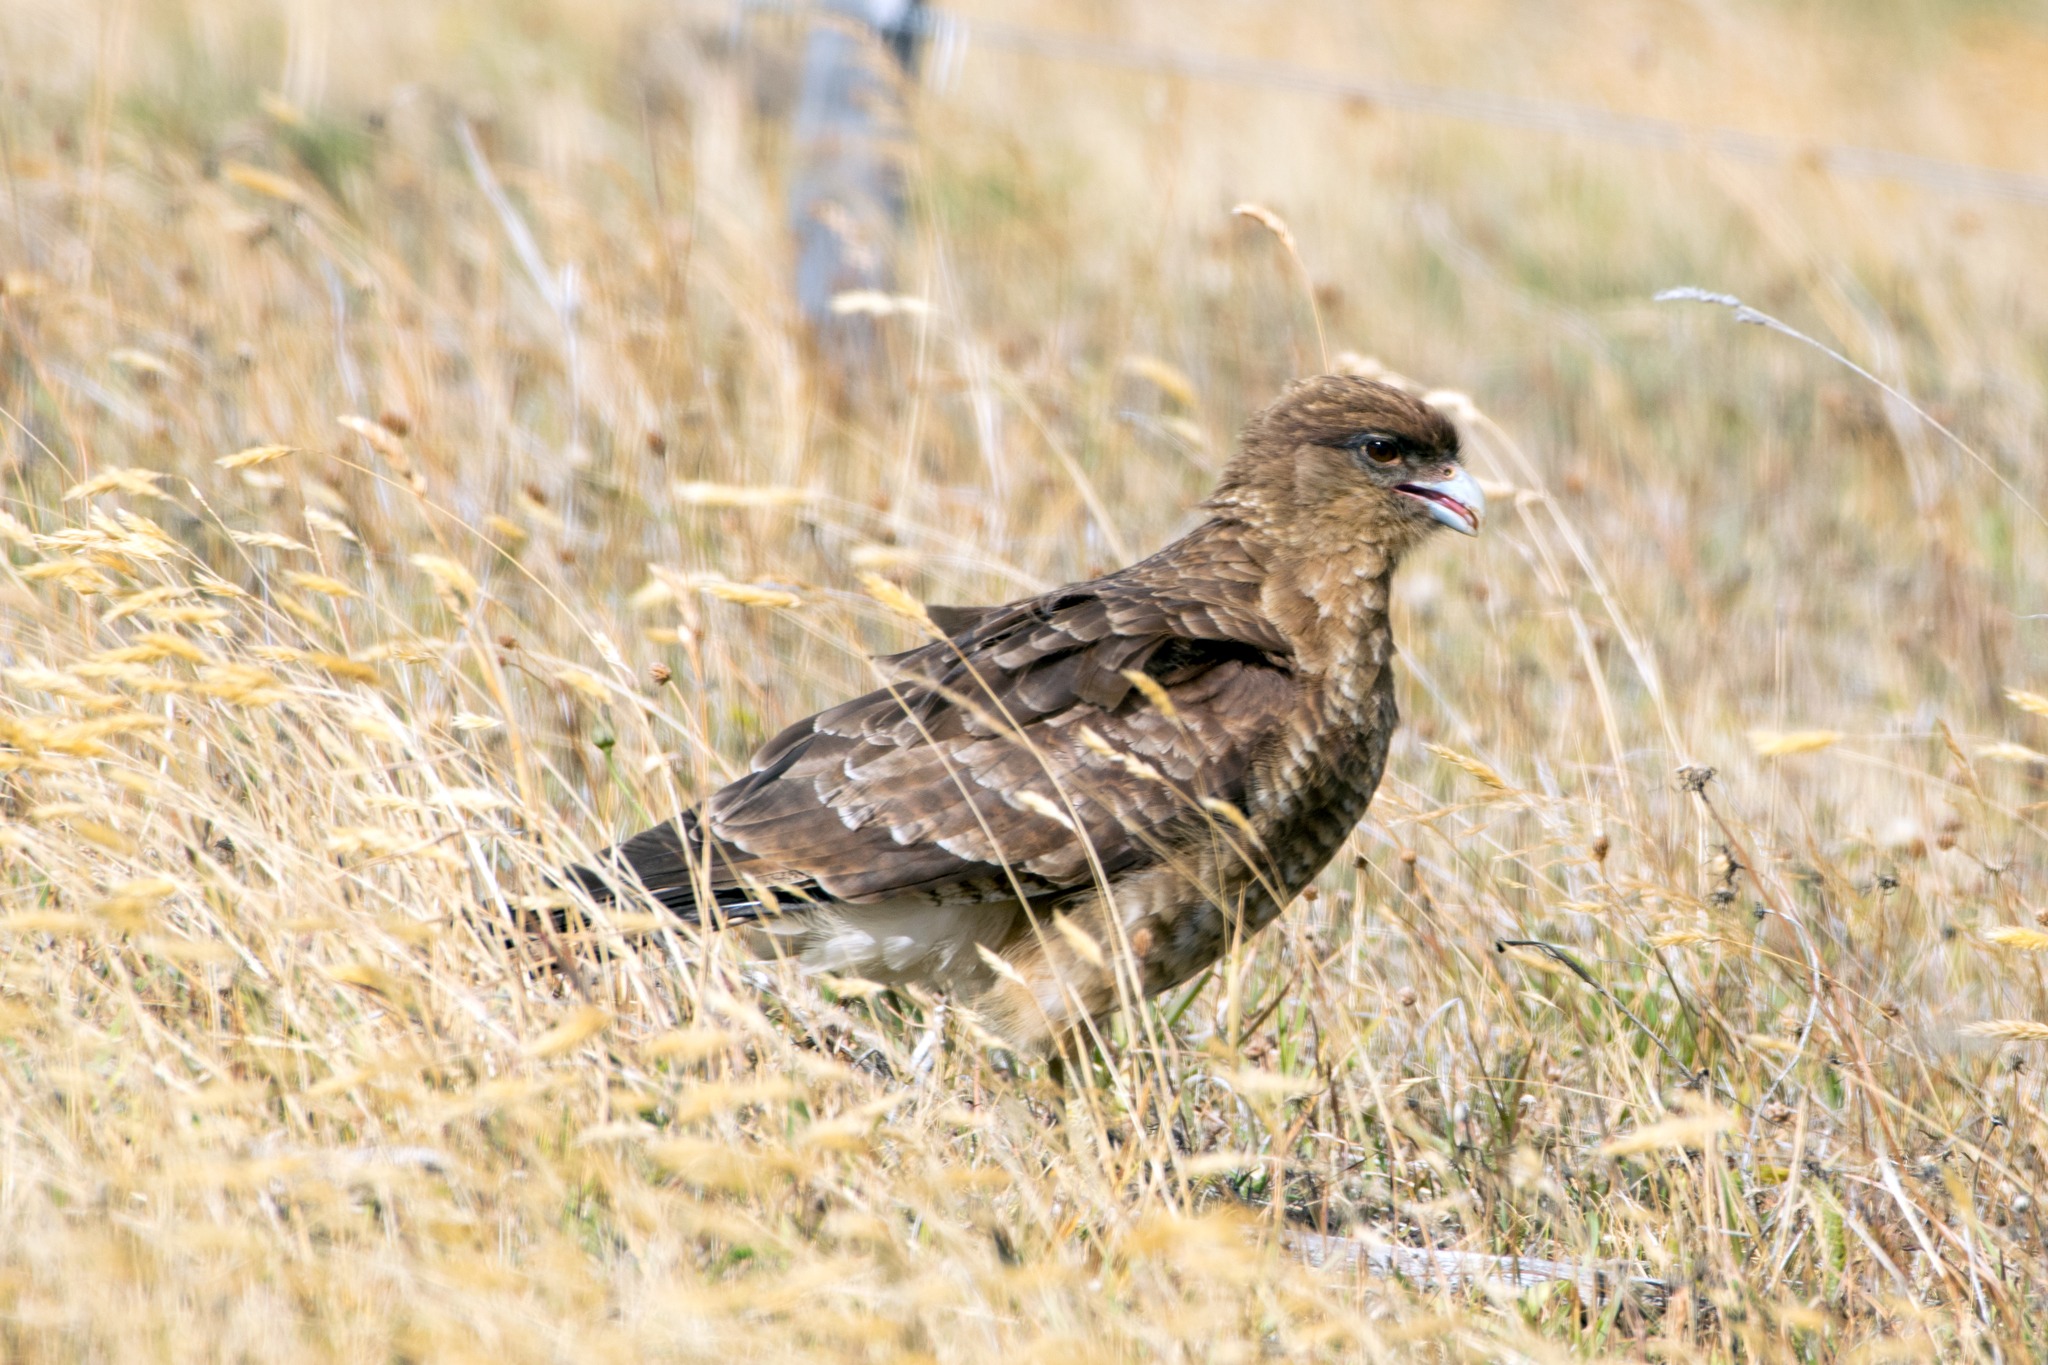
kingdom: Animalia
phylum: Chordata
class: Aves
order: Falconiformes
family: Falconidae
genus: Daptrius
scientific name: Daptrius
